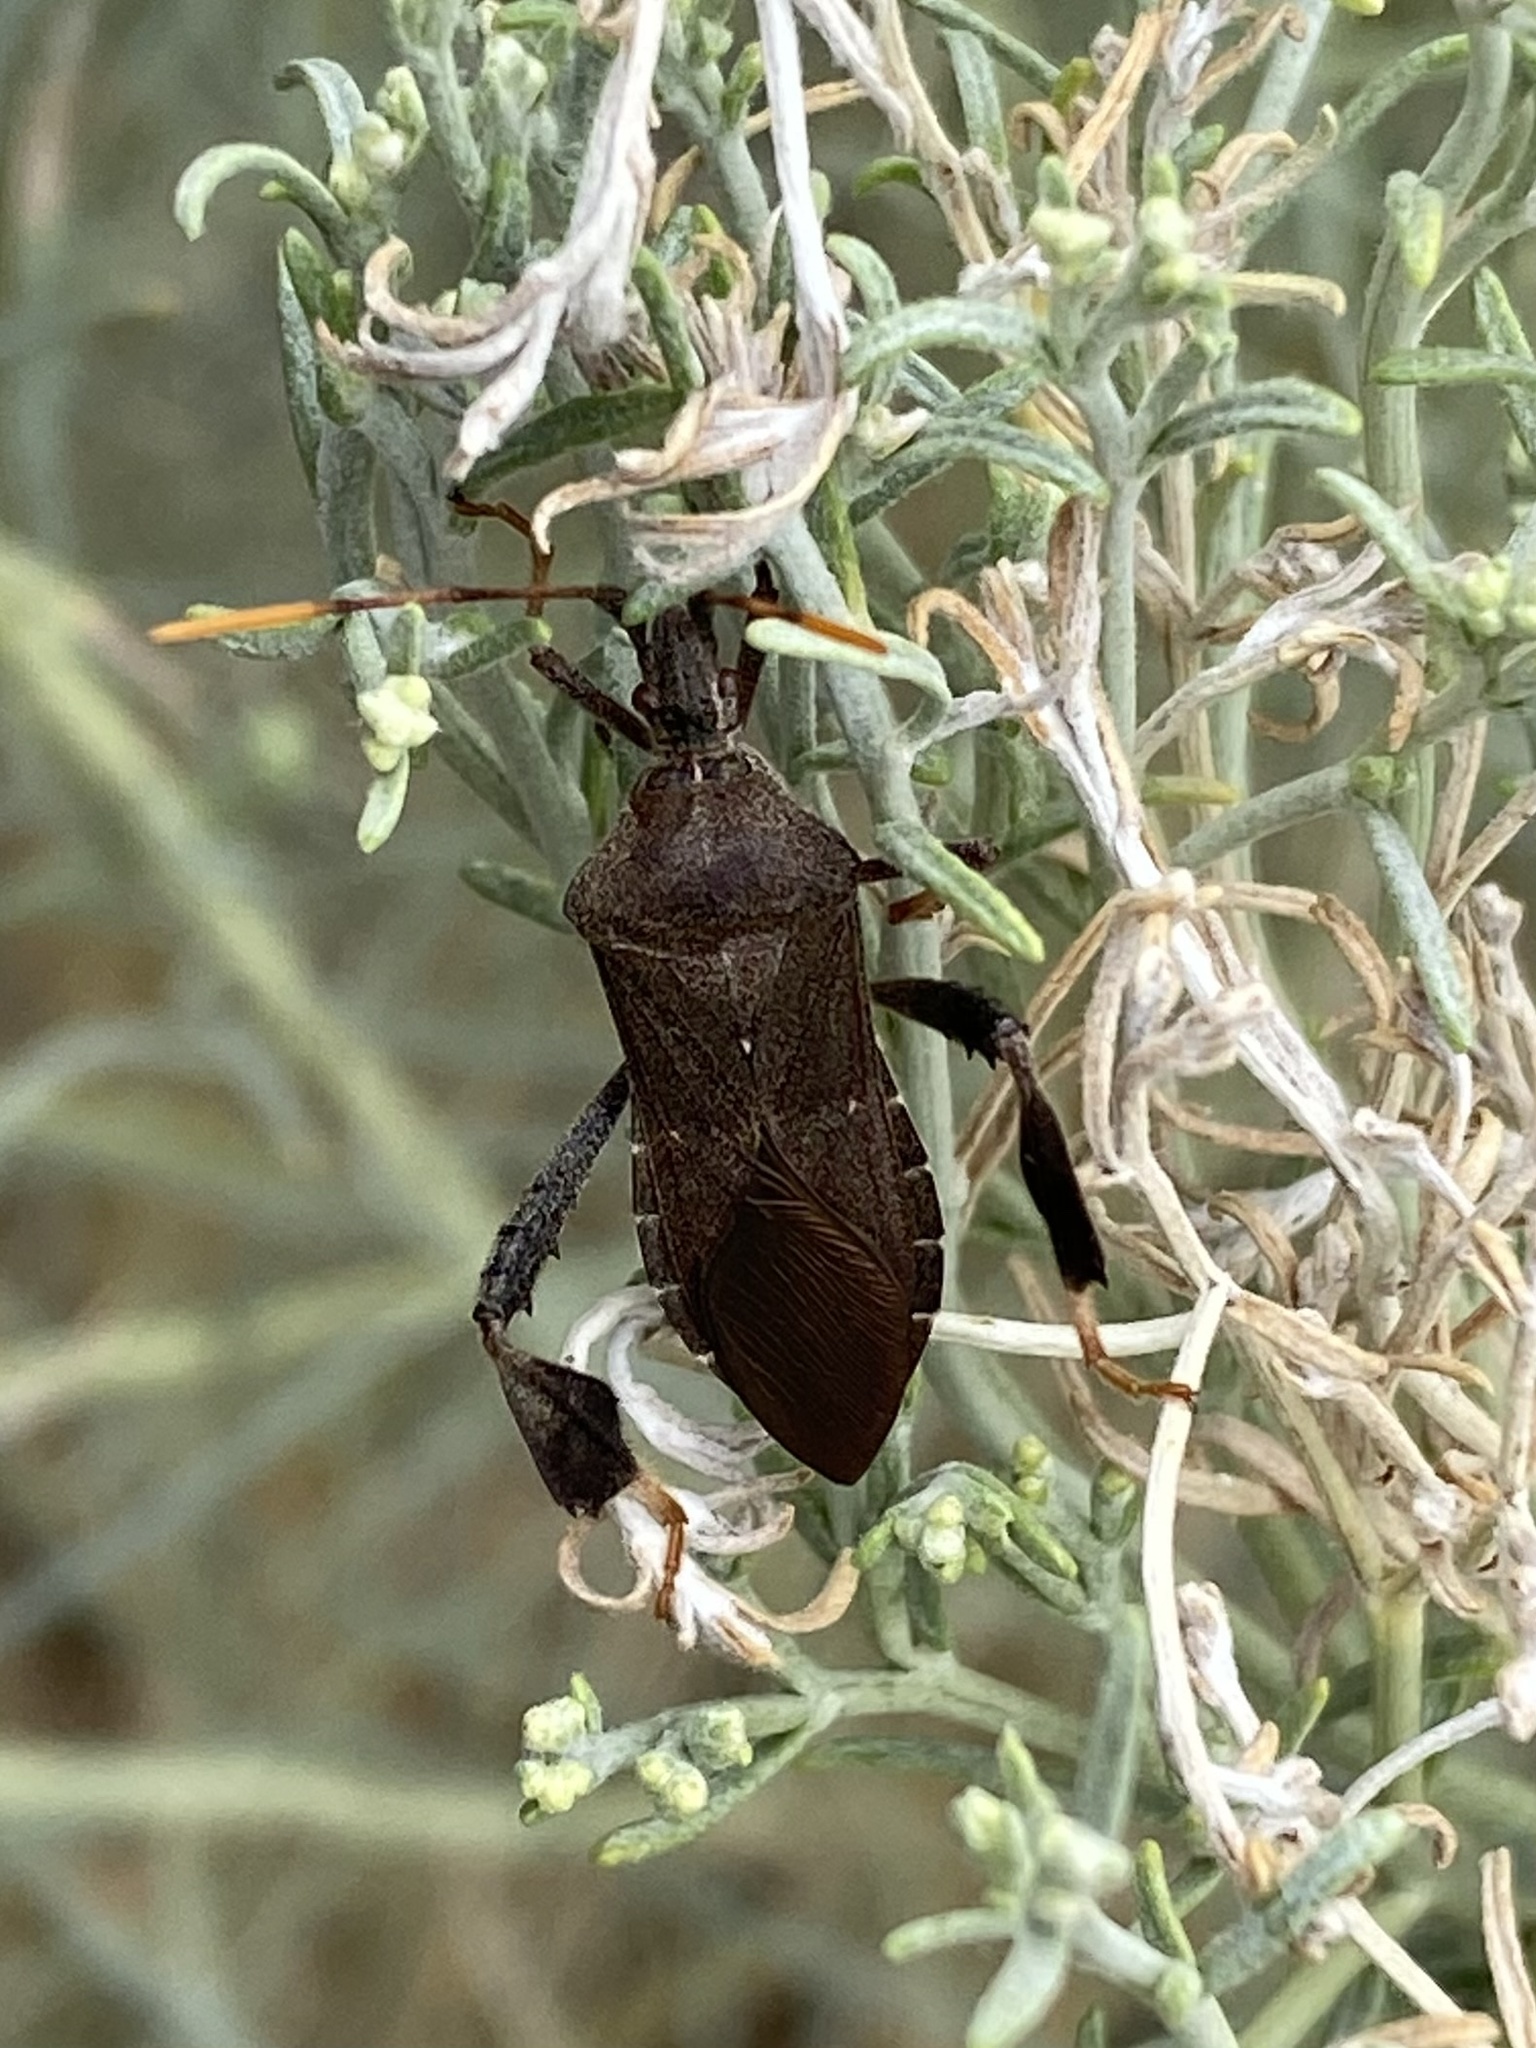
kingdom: Animalia
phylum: Arthropoda
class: Insecta
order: Hemiptera
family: Coreidae
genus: Leptoglossus
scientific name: Leptoglossus oppositus
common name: Northern leaf-footed bug
